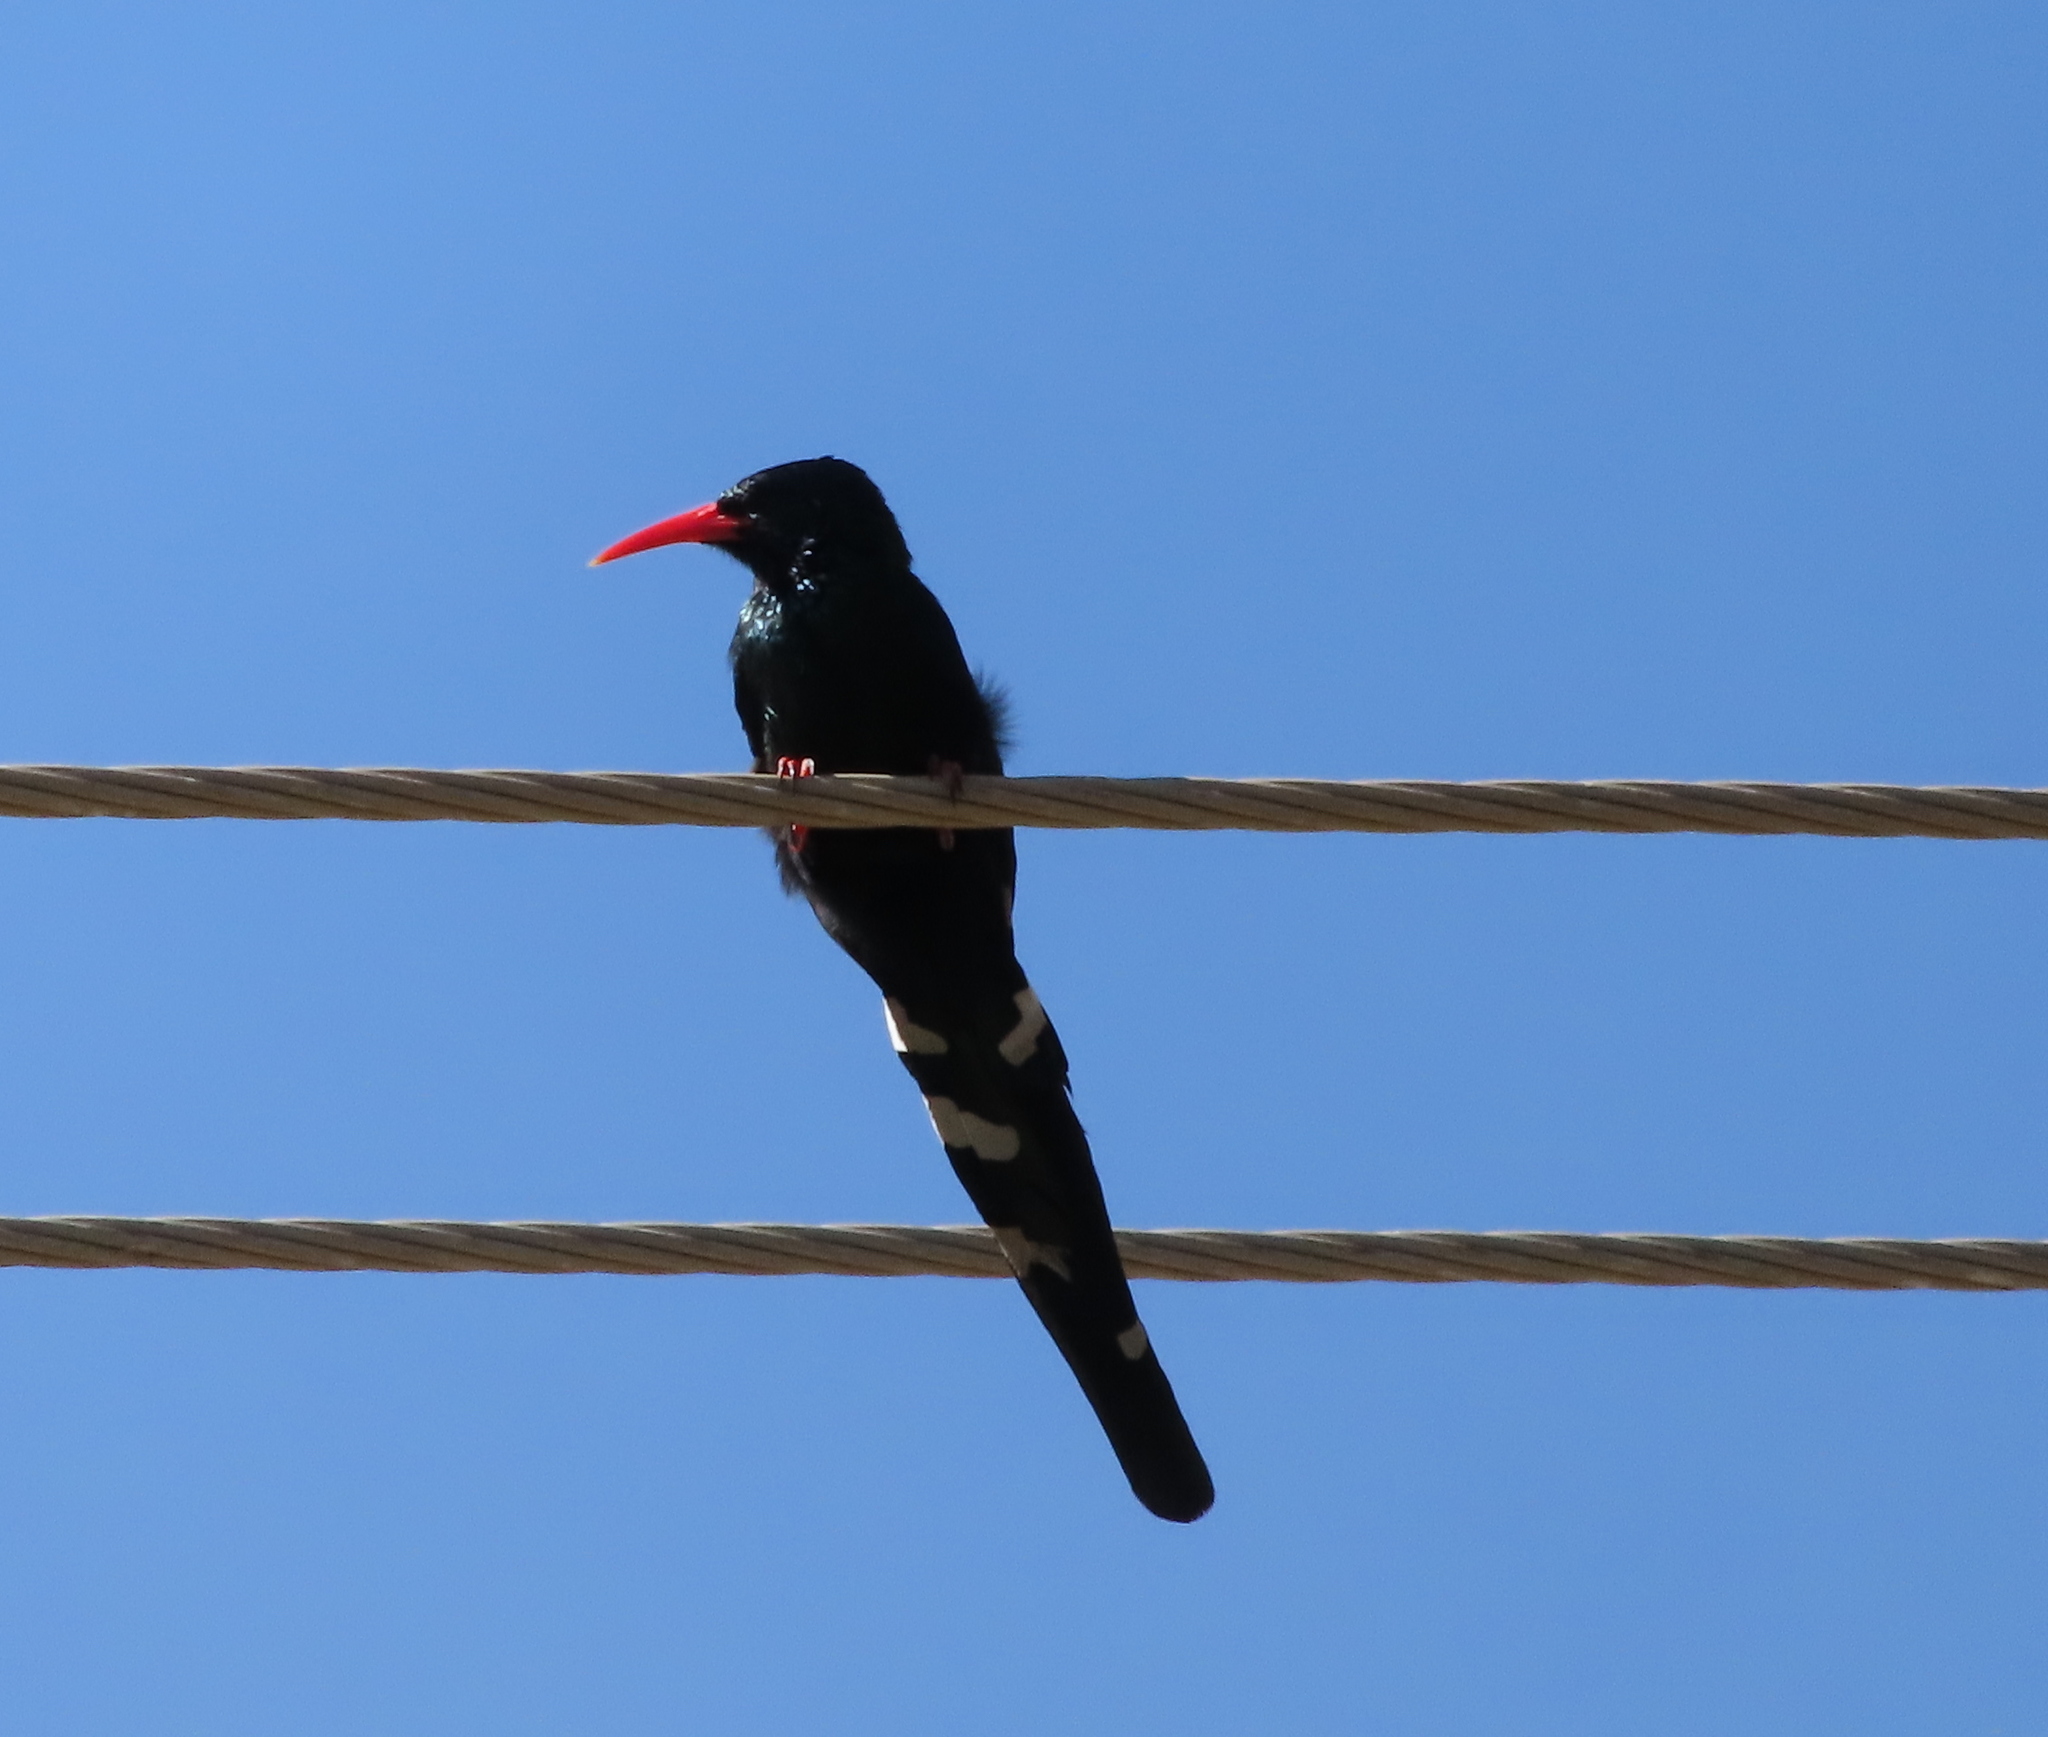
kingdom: Animalia
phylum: Chordata
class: Aves
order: Bucerotiformes
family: Phoeniculidae
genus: Phoeniculus
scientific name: Phoeniculus purpureus
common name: Green woodhoopoe
